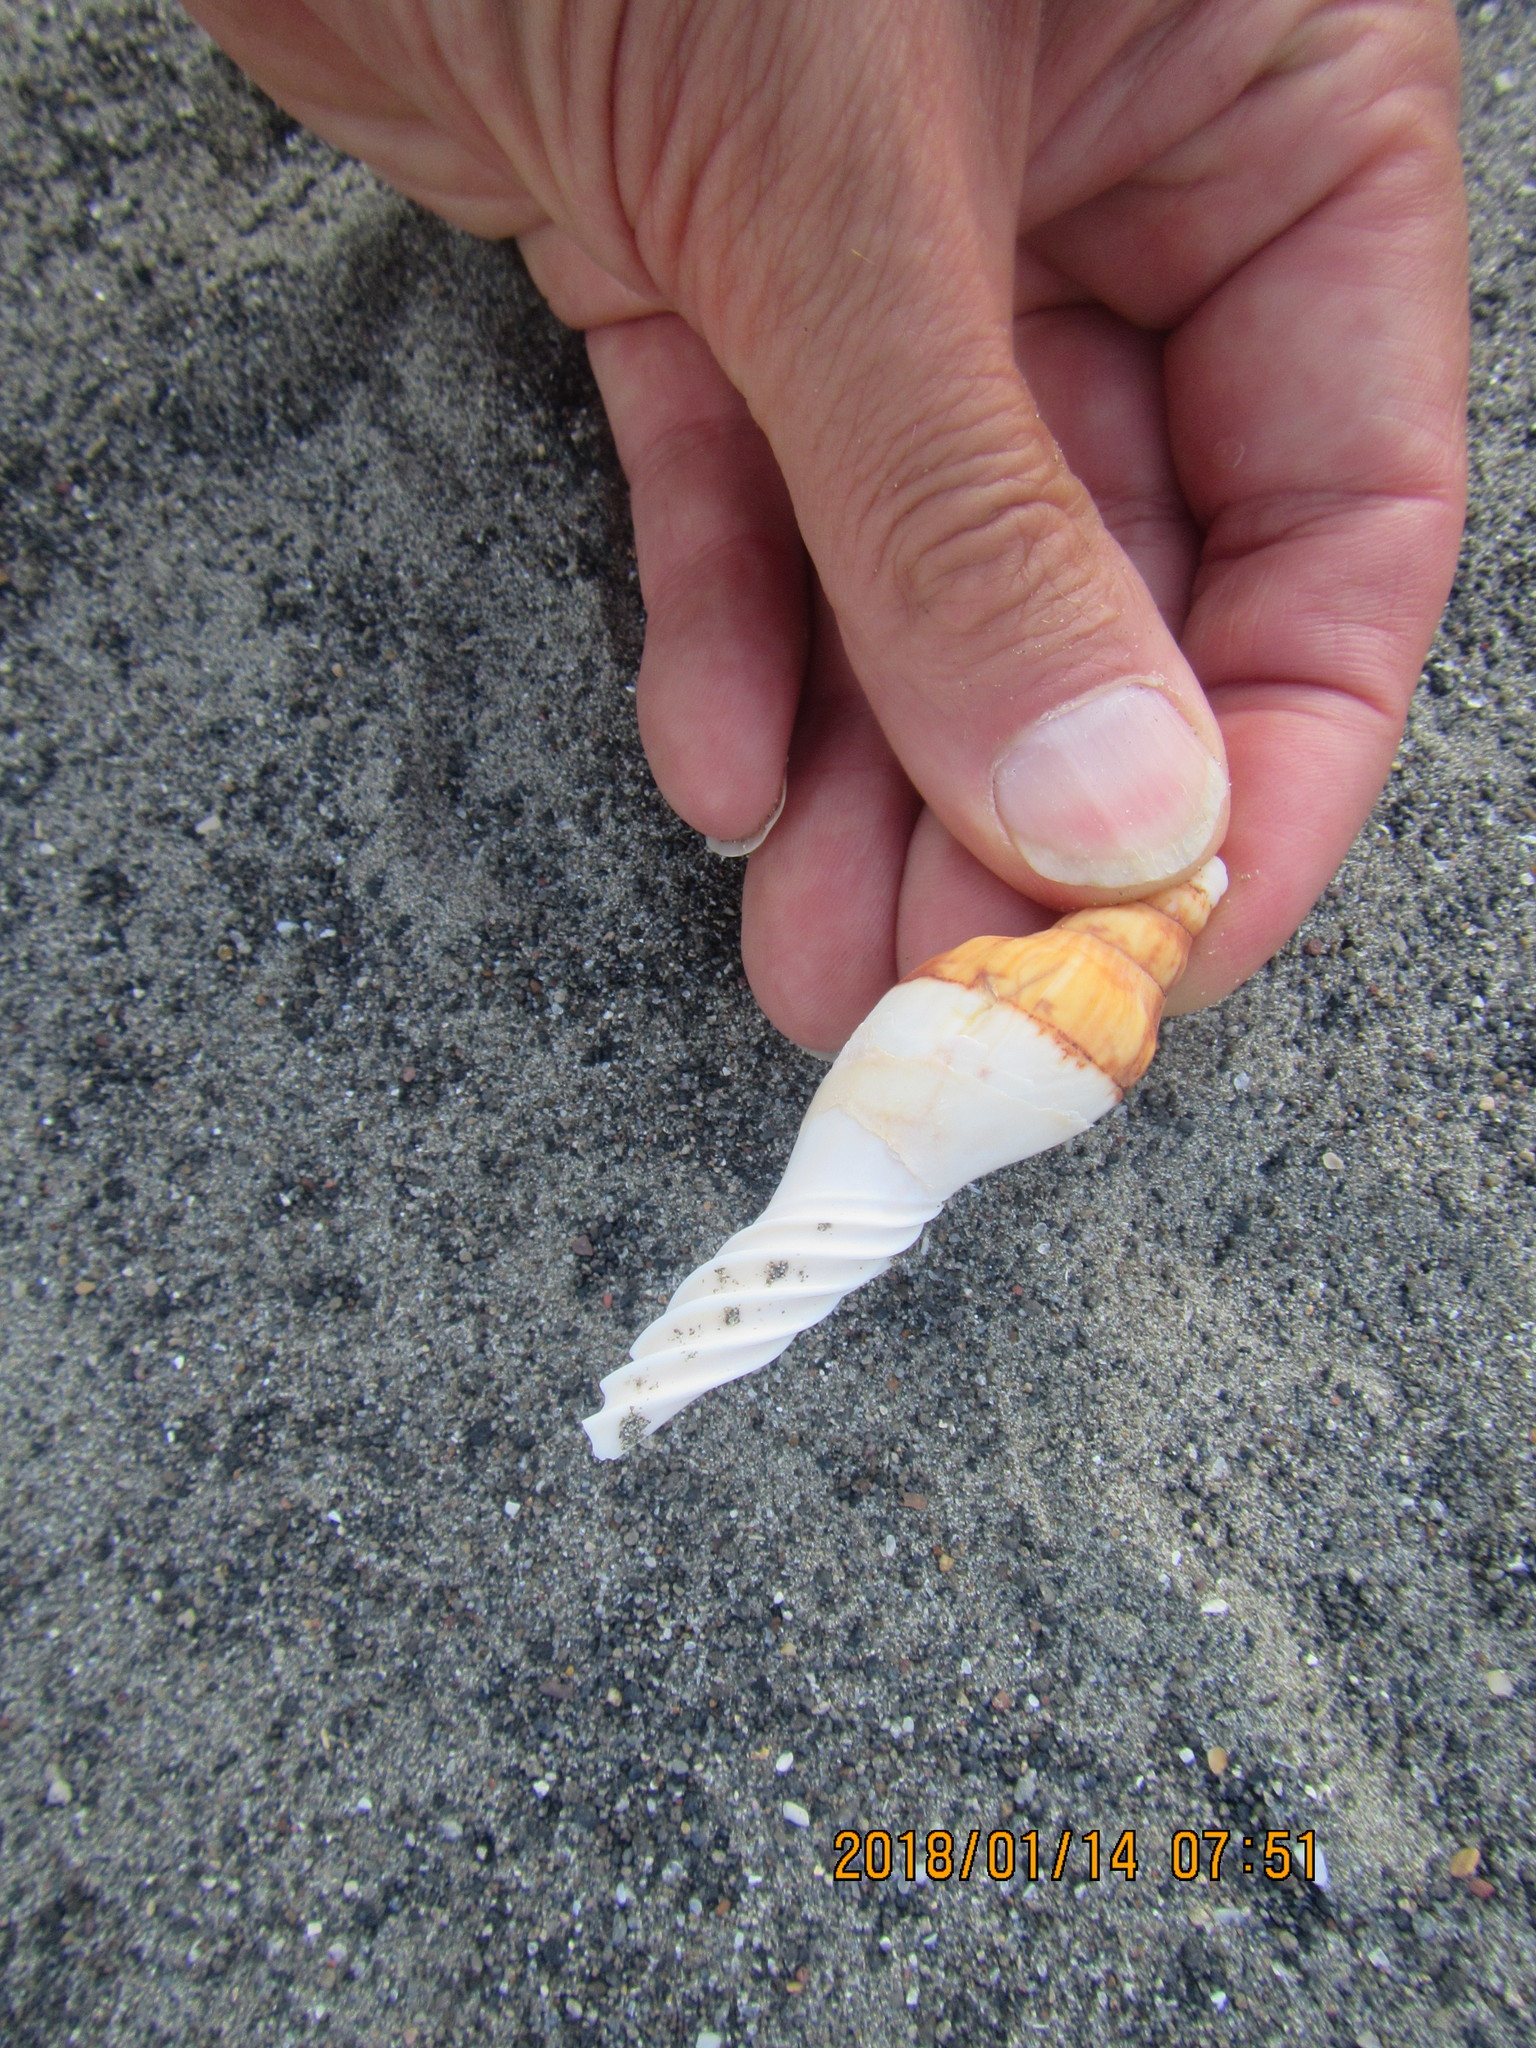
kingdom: Animalia
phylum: Mollusca
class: Gastropoda
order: Neogastropoda
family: Volutidae
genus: Alcithoe
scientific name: Alcithoe arabica
